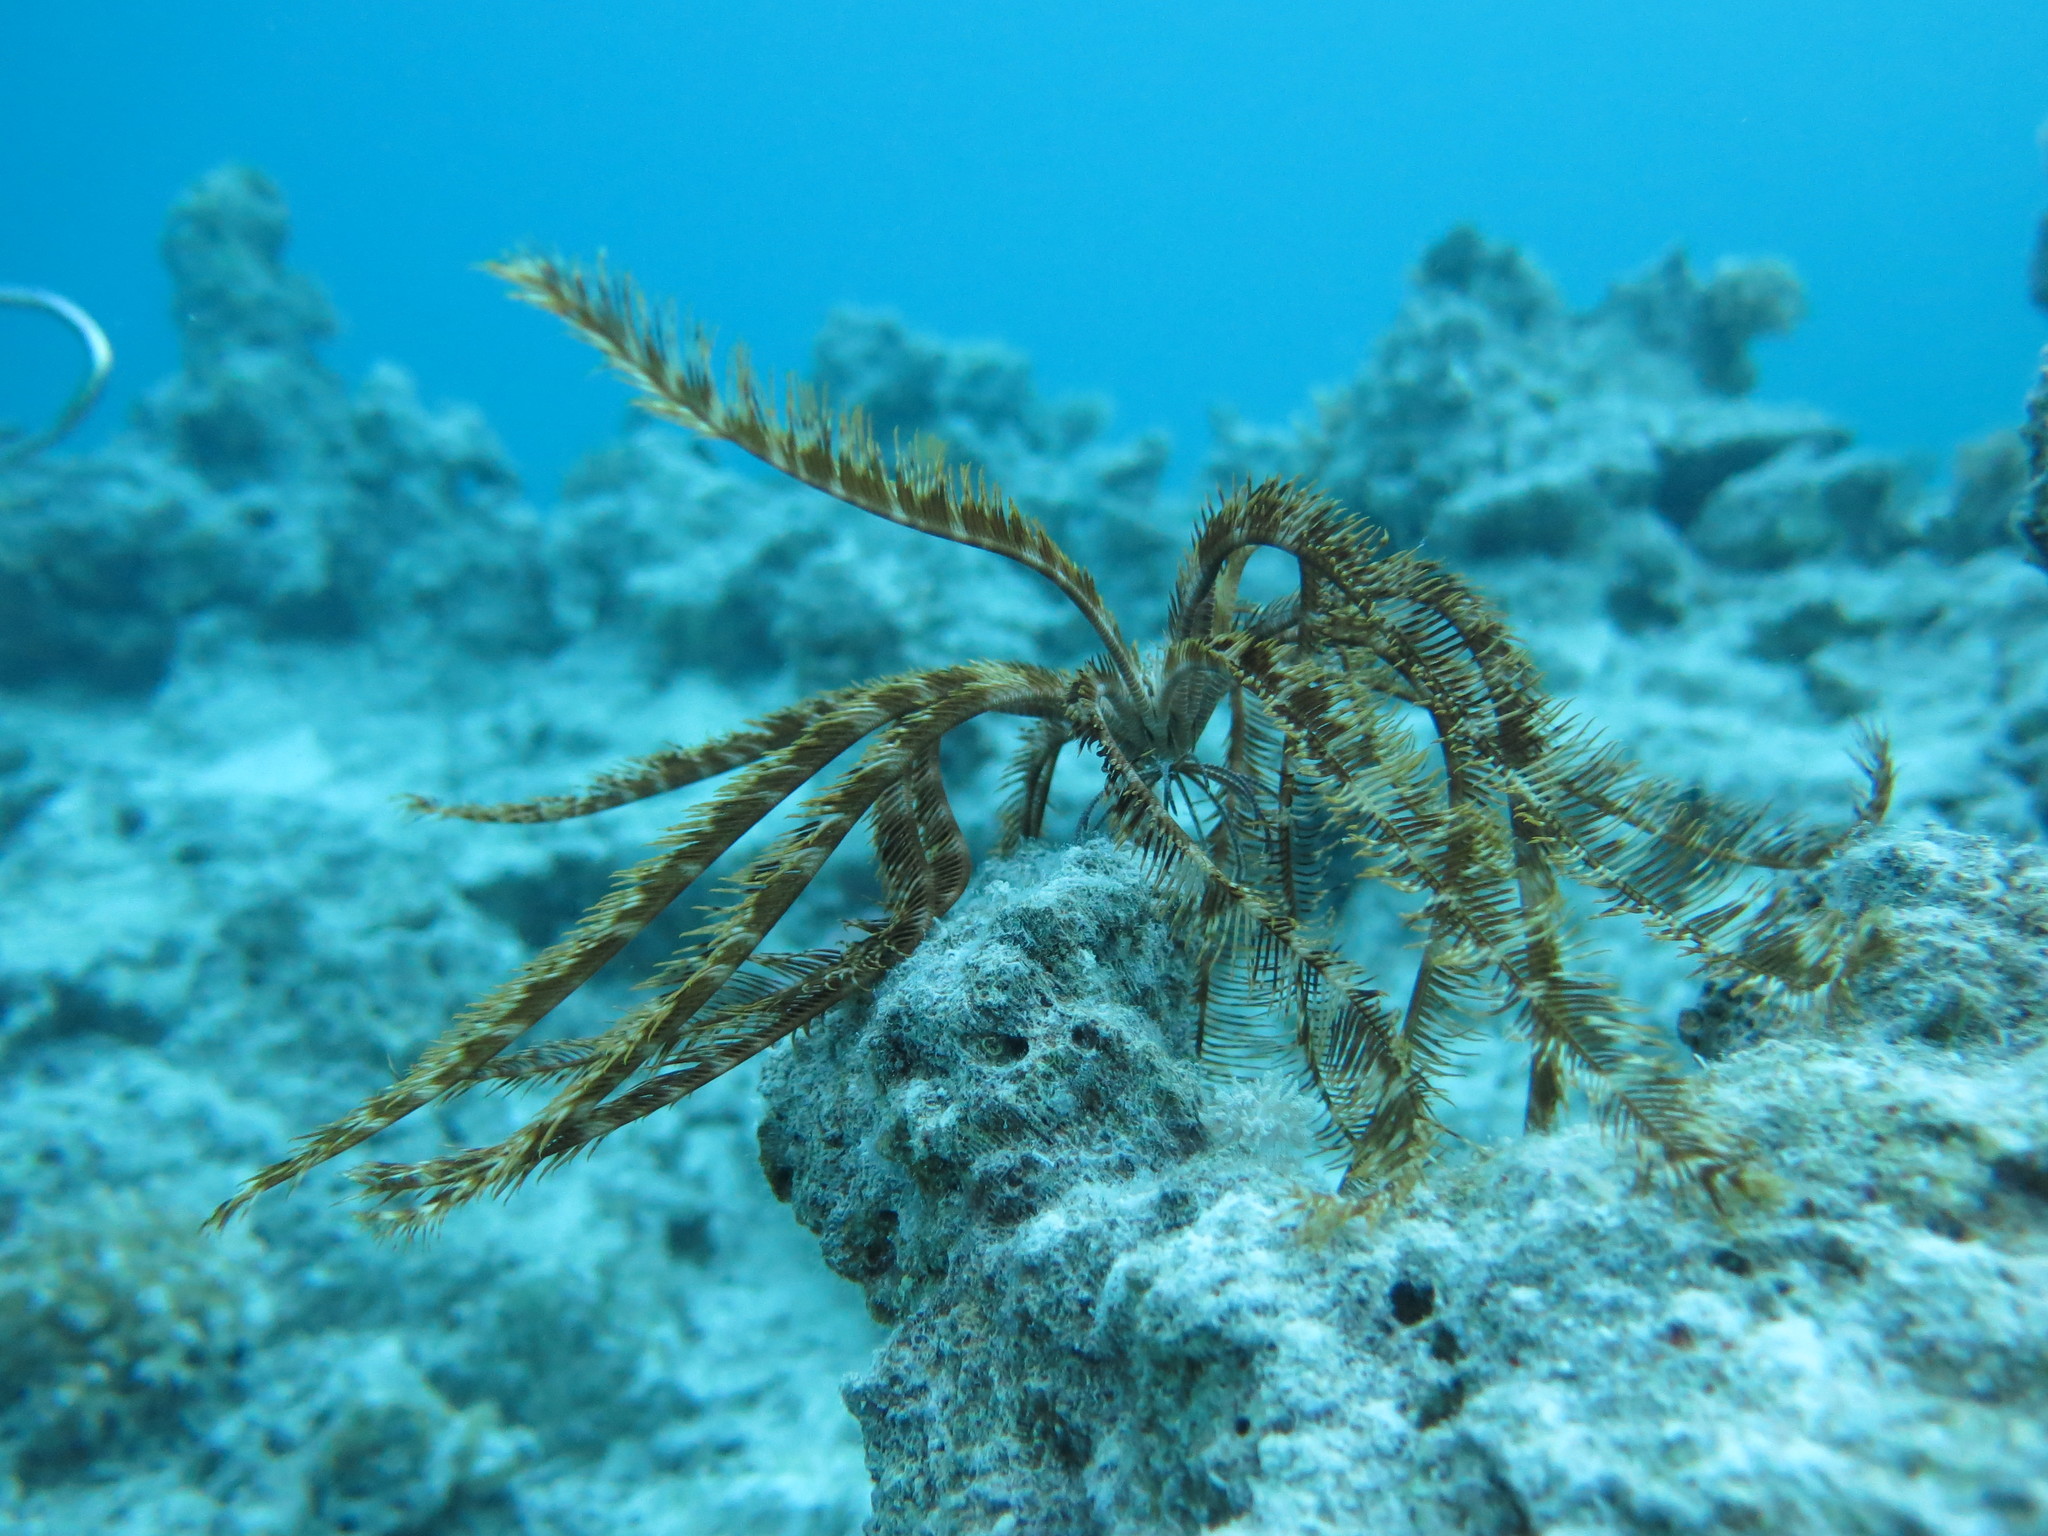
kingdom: Animalia
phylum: Echinodermata
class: Crinoidea
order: Comatulida
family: Mariametridae
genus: Dichrometra
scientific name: Dichrometra palmata
